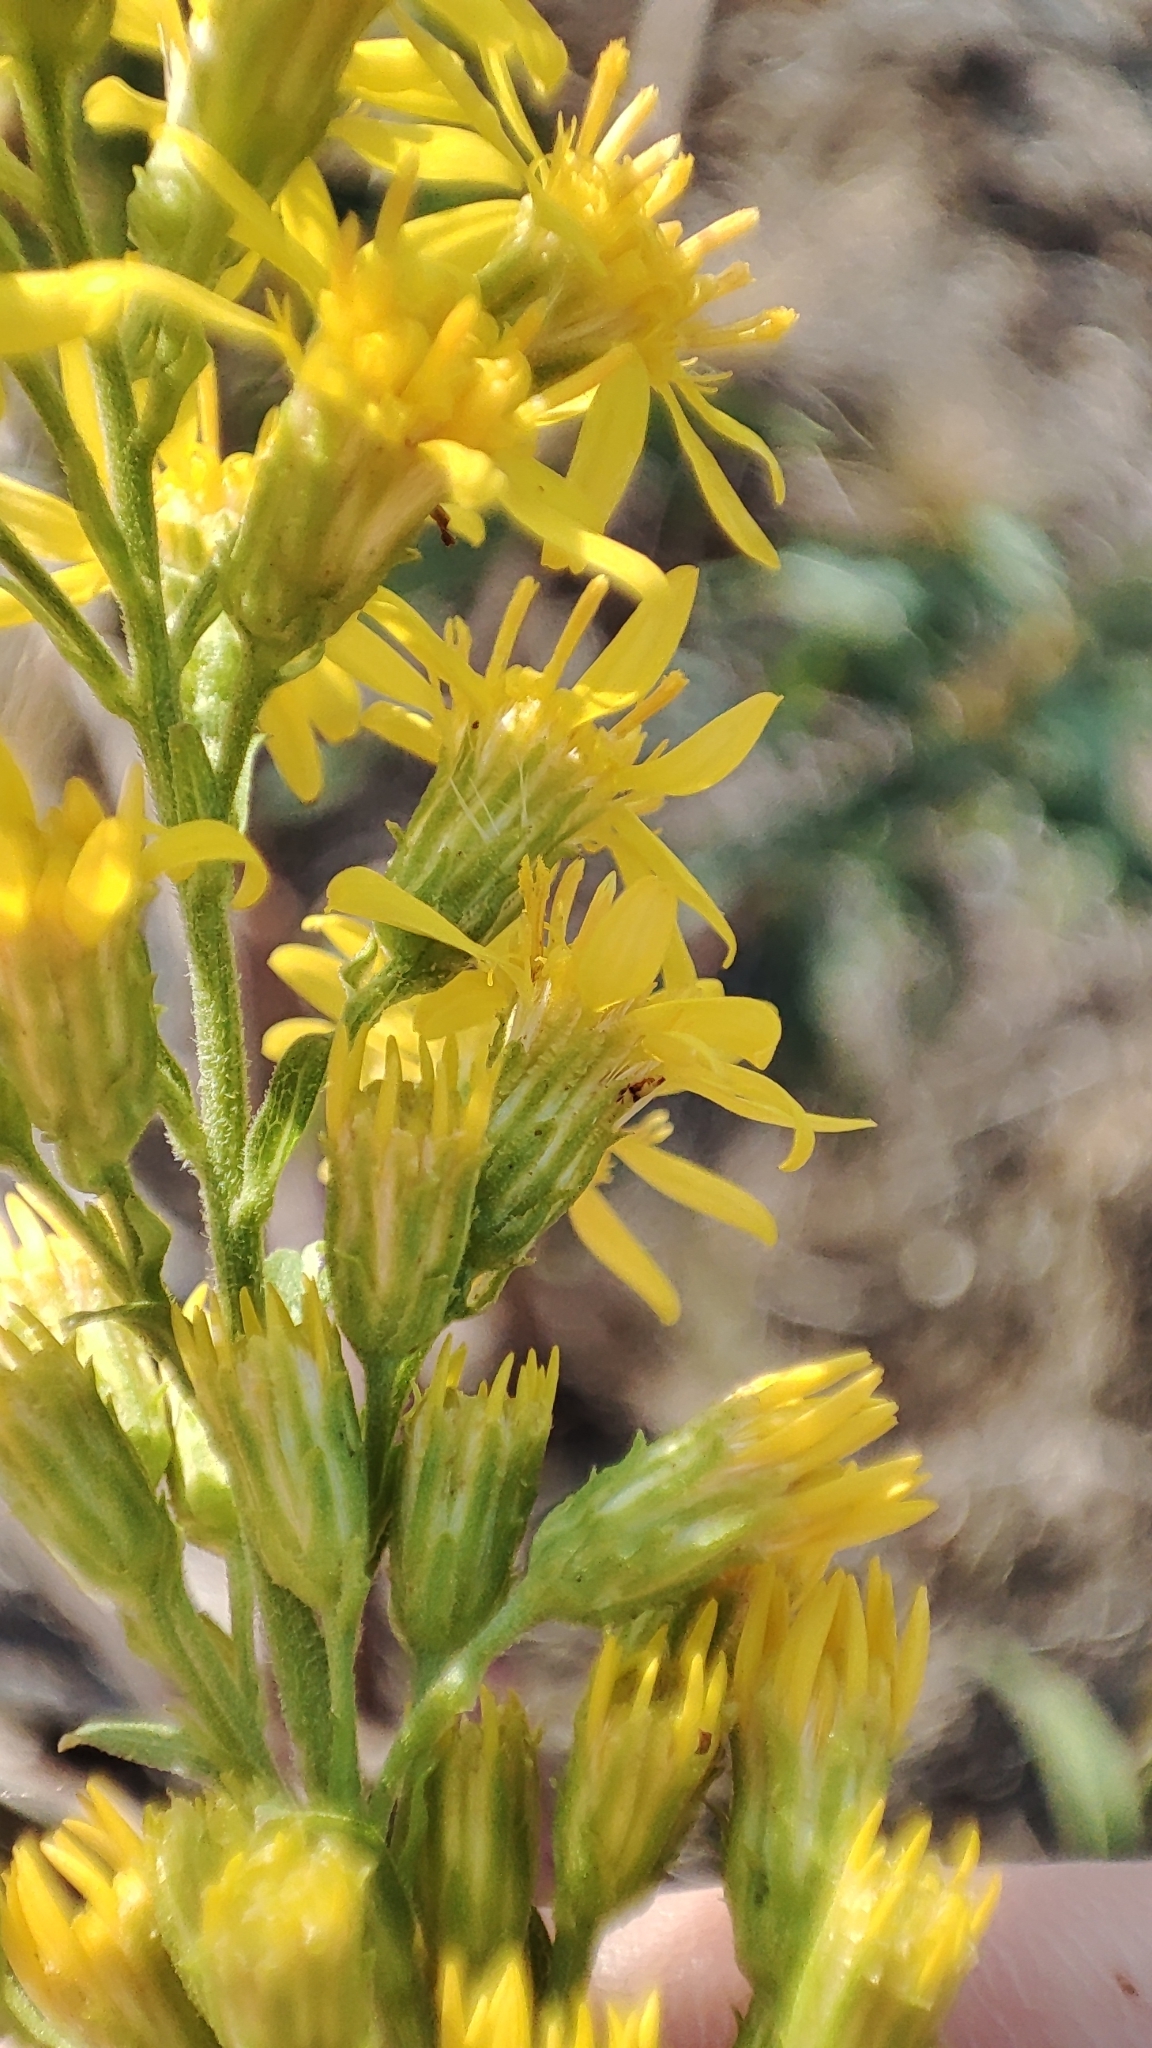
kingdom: Plantae
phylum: Tracheophyta
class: Magnoliopsida
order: Asterales
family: Asteraceae
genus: Solidago
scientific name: Solidago virgaurea
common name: Goldenrod
